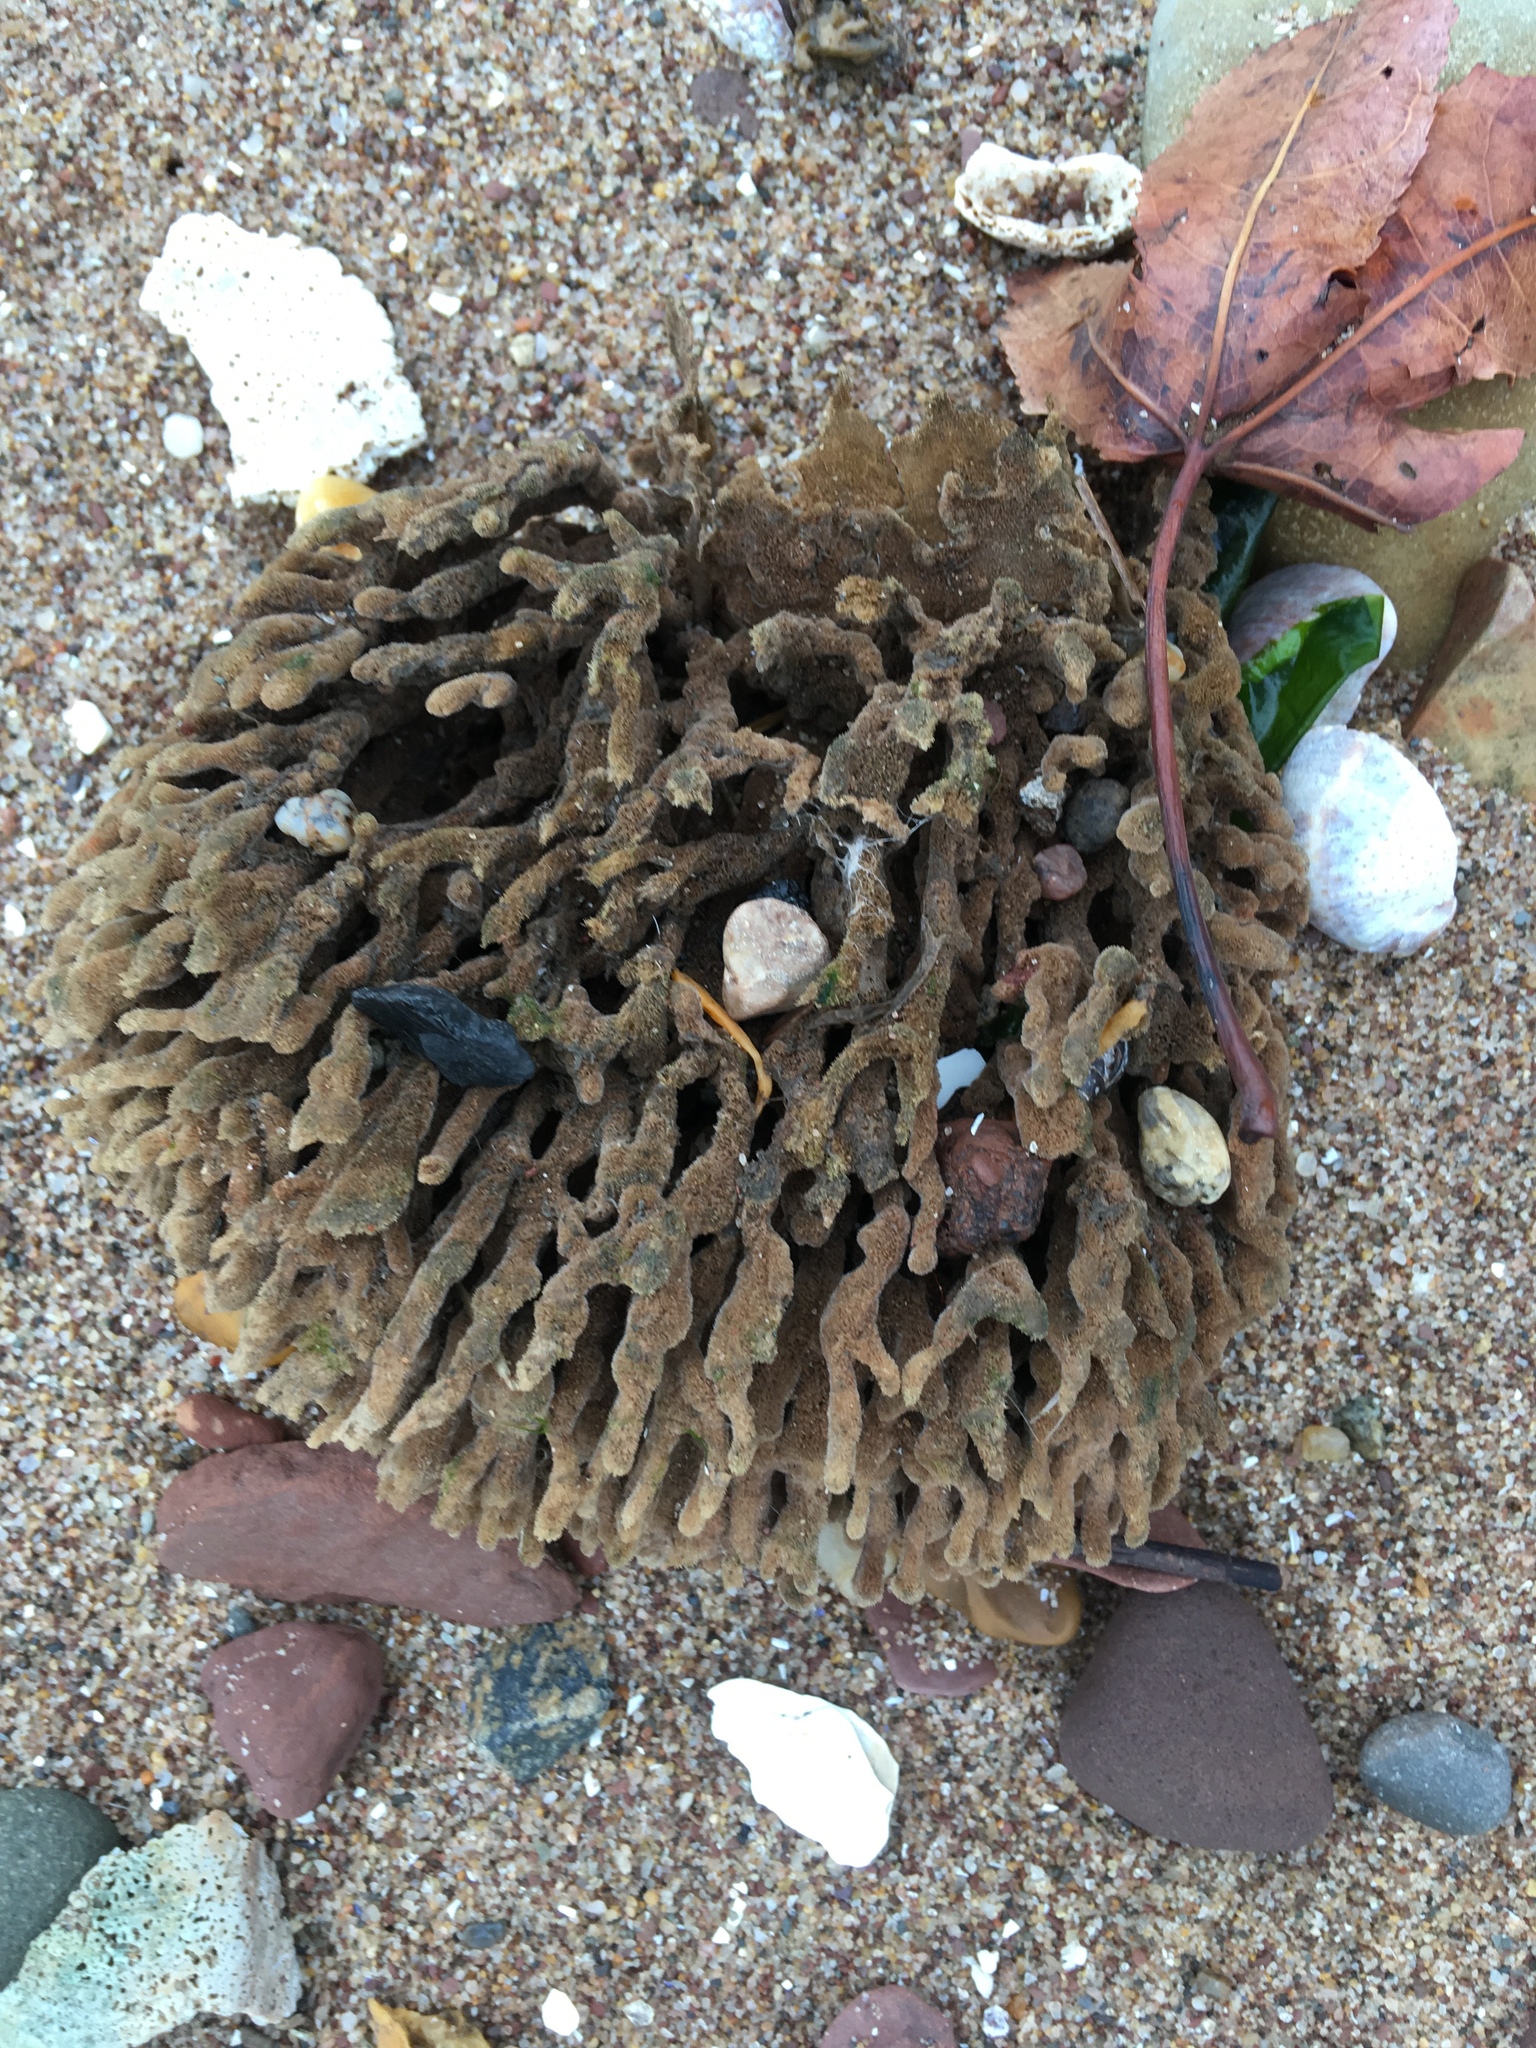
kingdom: Animalia
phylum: Porifera
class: Demospongiae
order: Poecilosclerida
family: Microcionidae
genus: Clathria
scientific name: Clathria prolifera
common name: Red beard sponge
